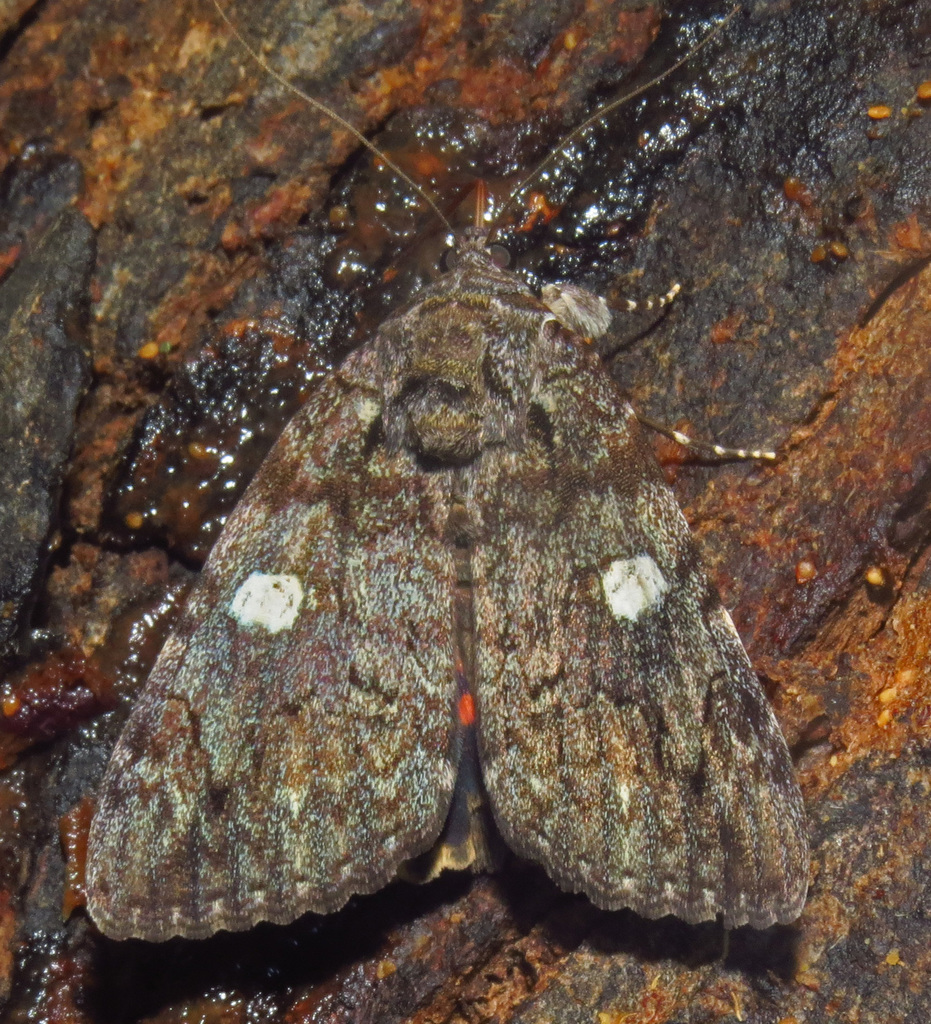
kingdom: Animalia
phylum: Arthropoda
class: Insecta
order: Lepidoptera
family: Erebidae
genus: Catocala
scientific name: Catocala ilia
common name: Ilia underwing
